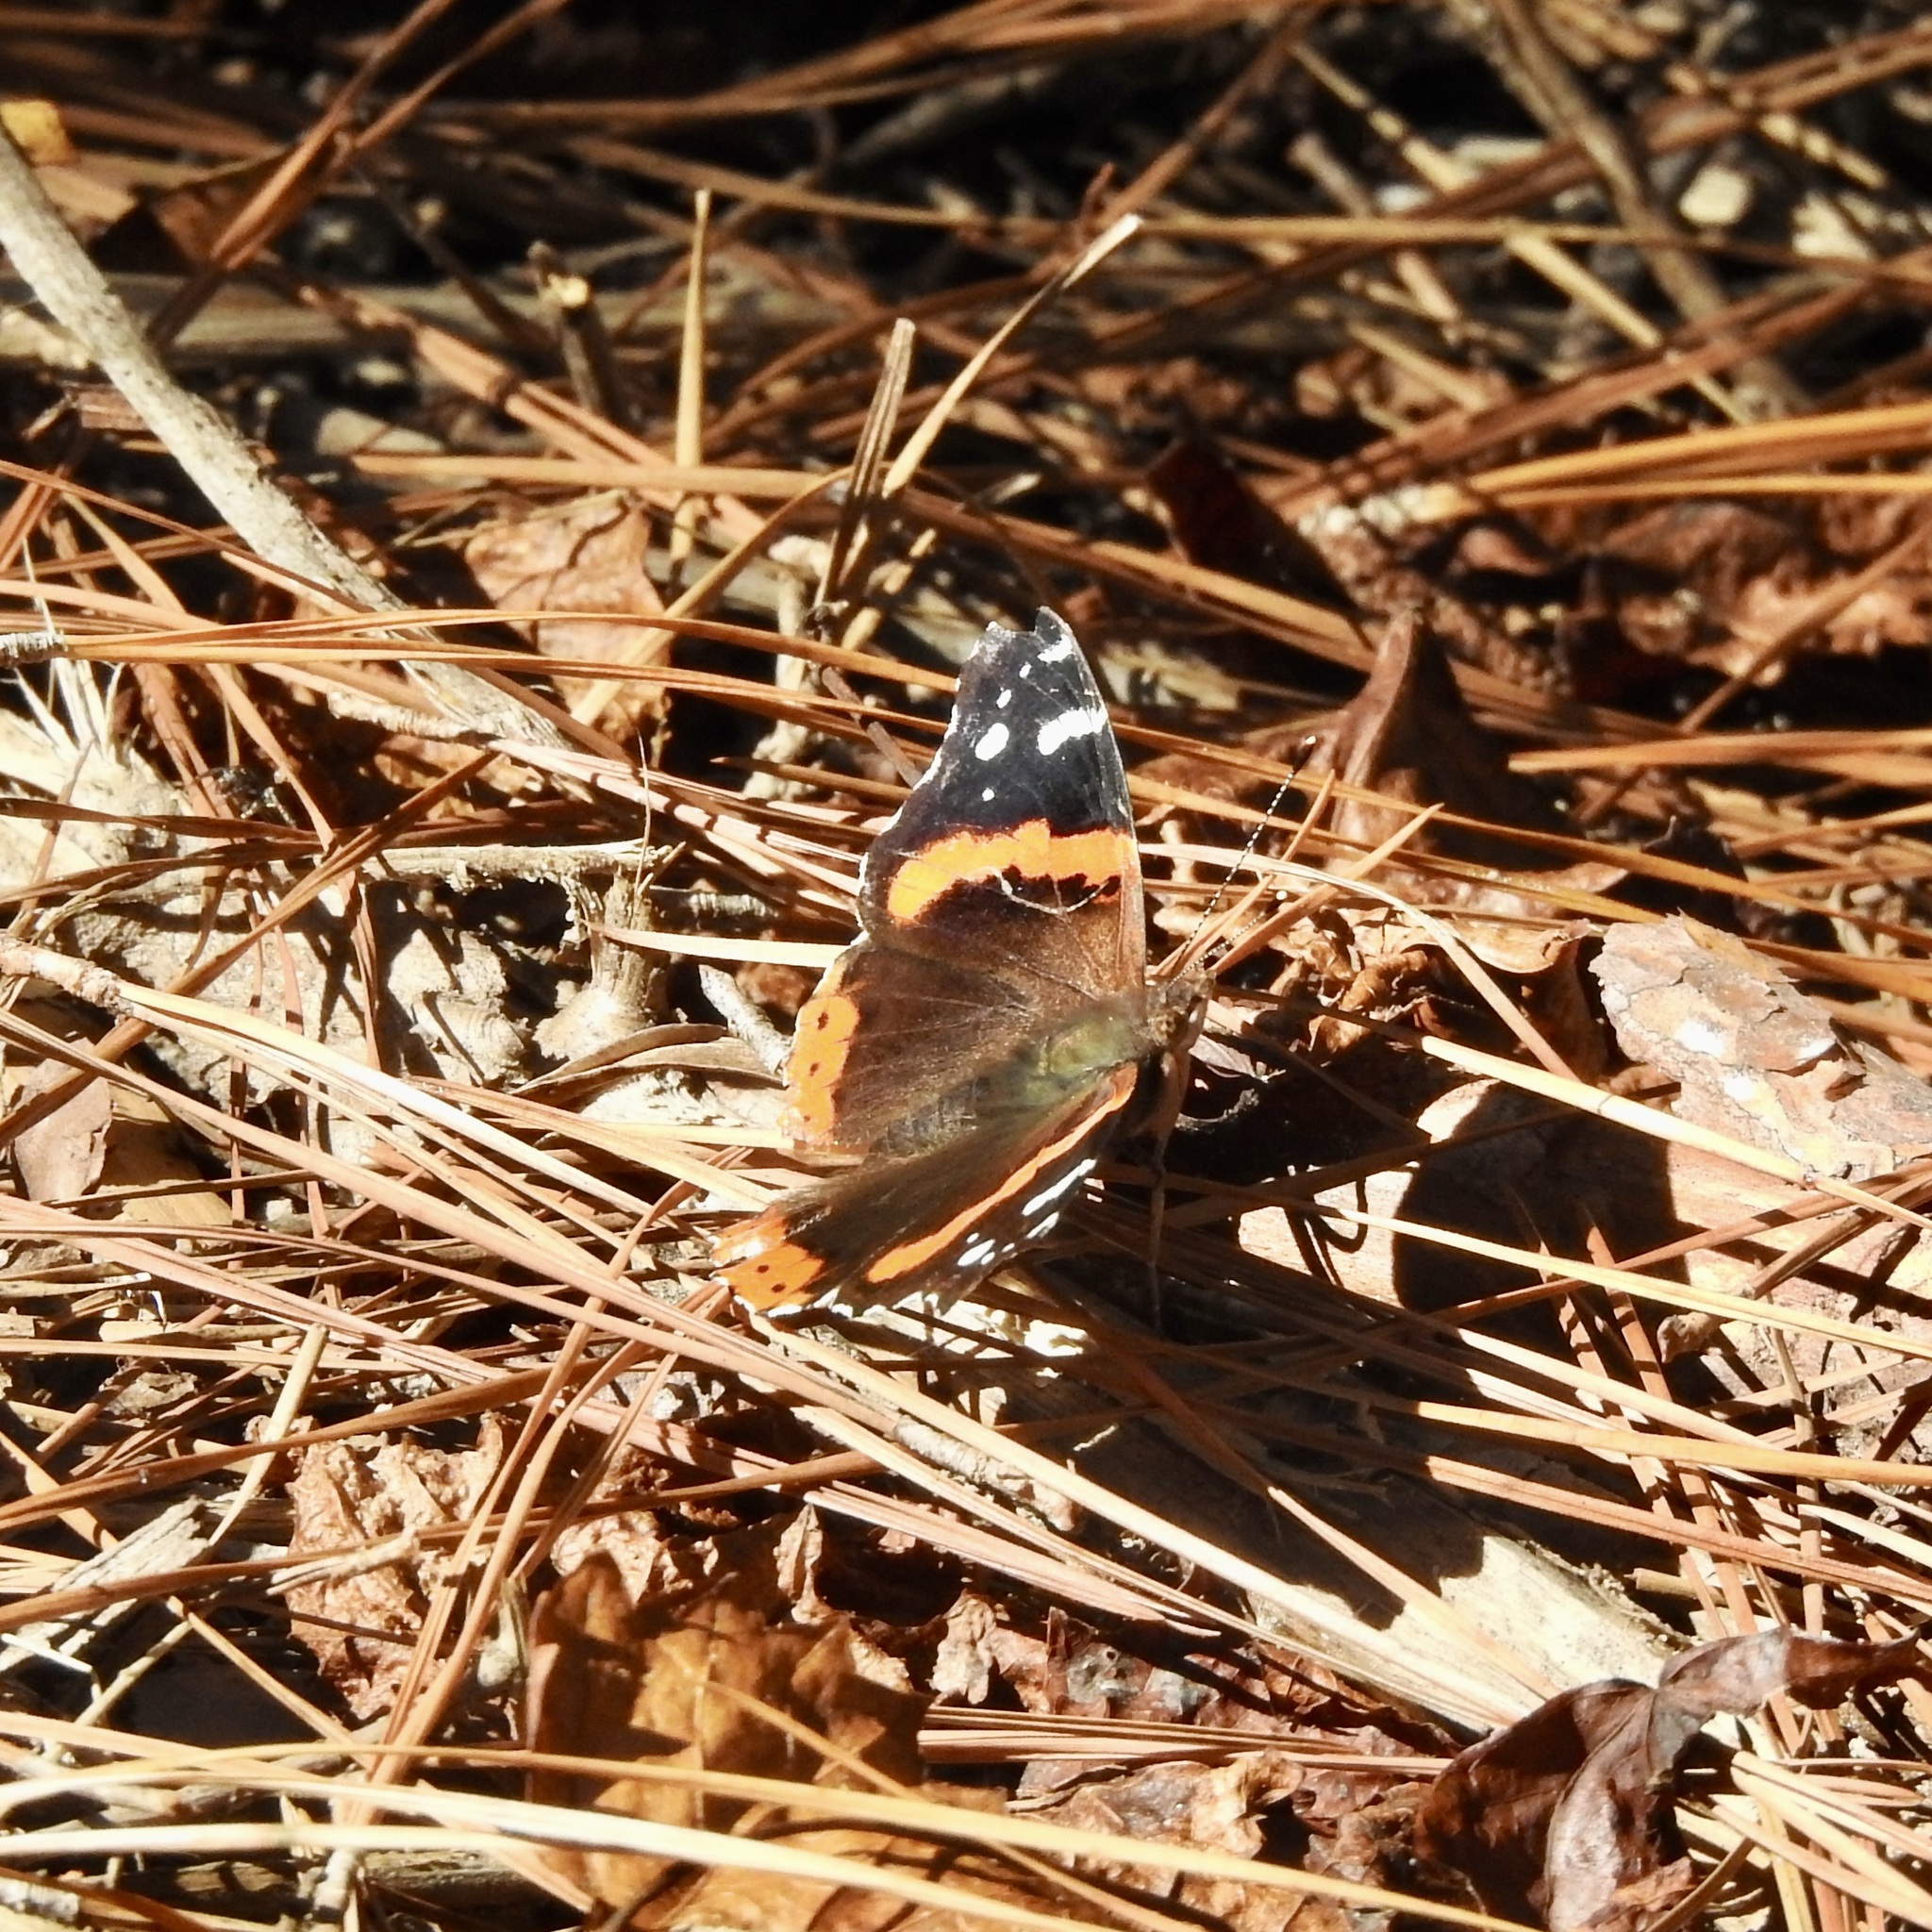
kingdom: Animalia
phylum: Arthropoda
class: Insecta
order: Lepidoptera
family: Nymphalidae
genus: Vanessa
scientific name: Vanessa atalanta
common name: Red admiral
